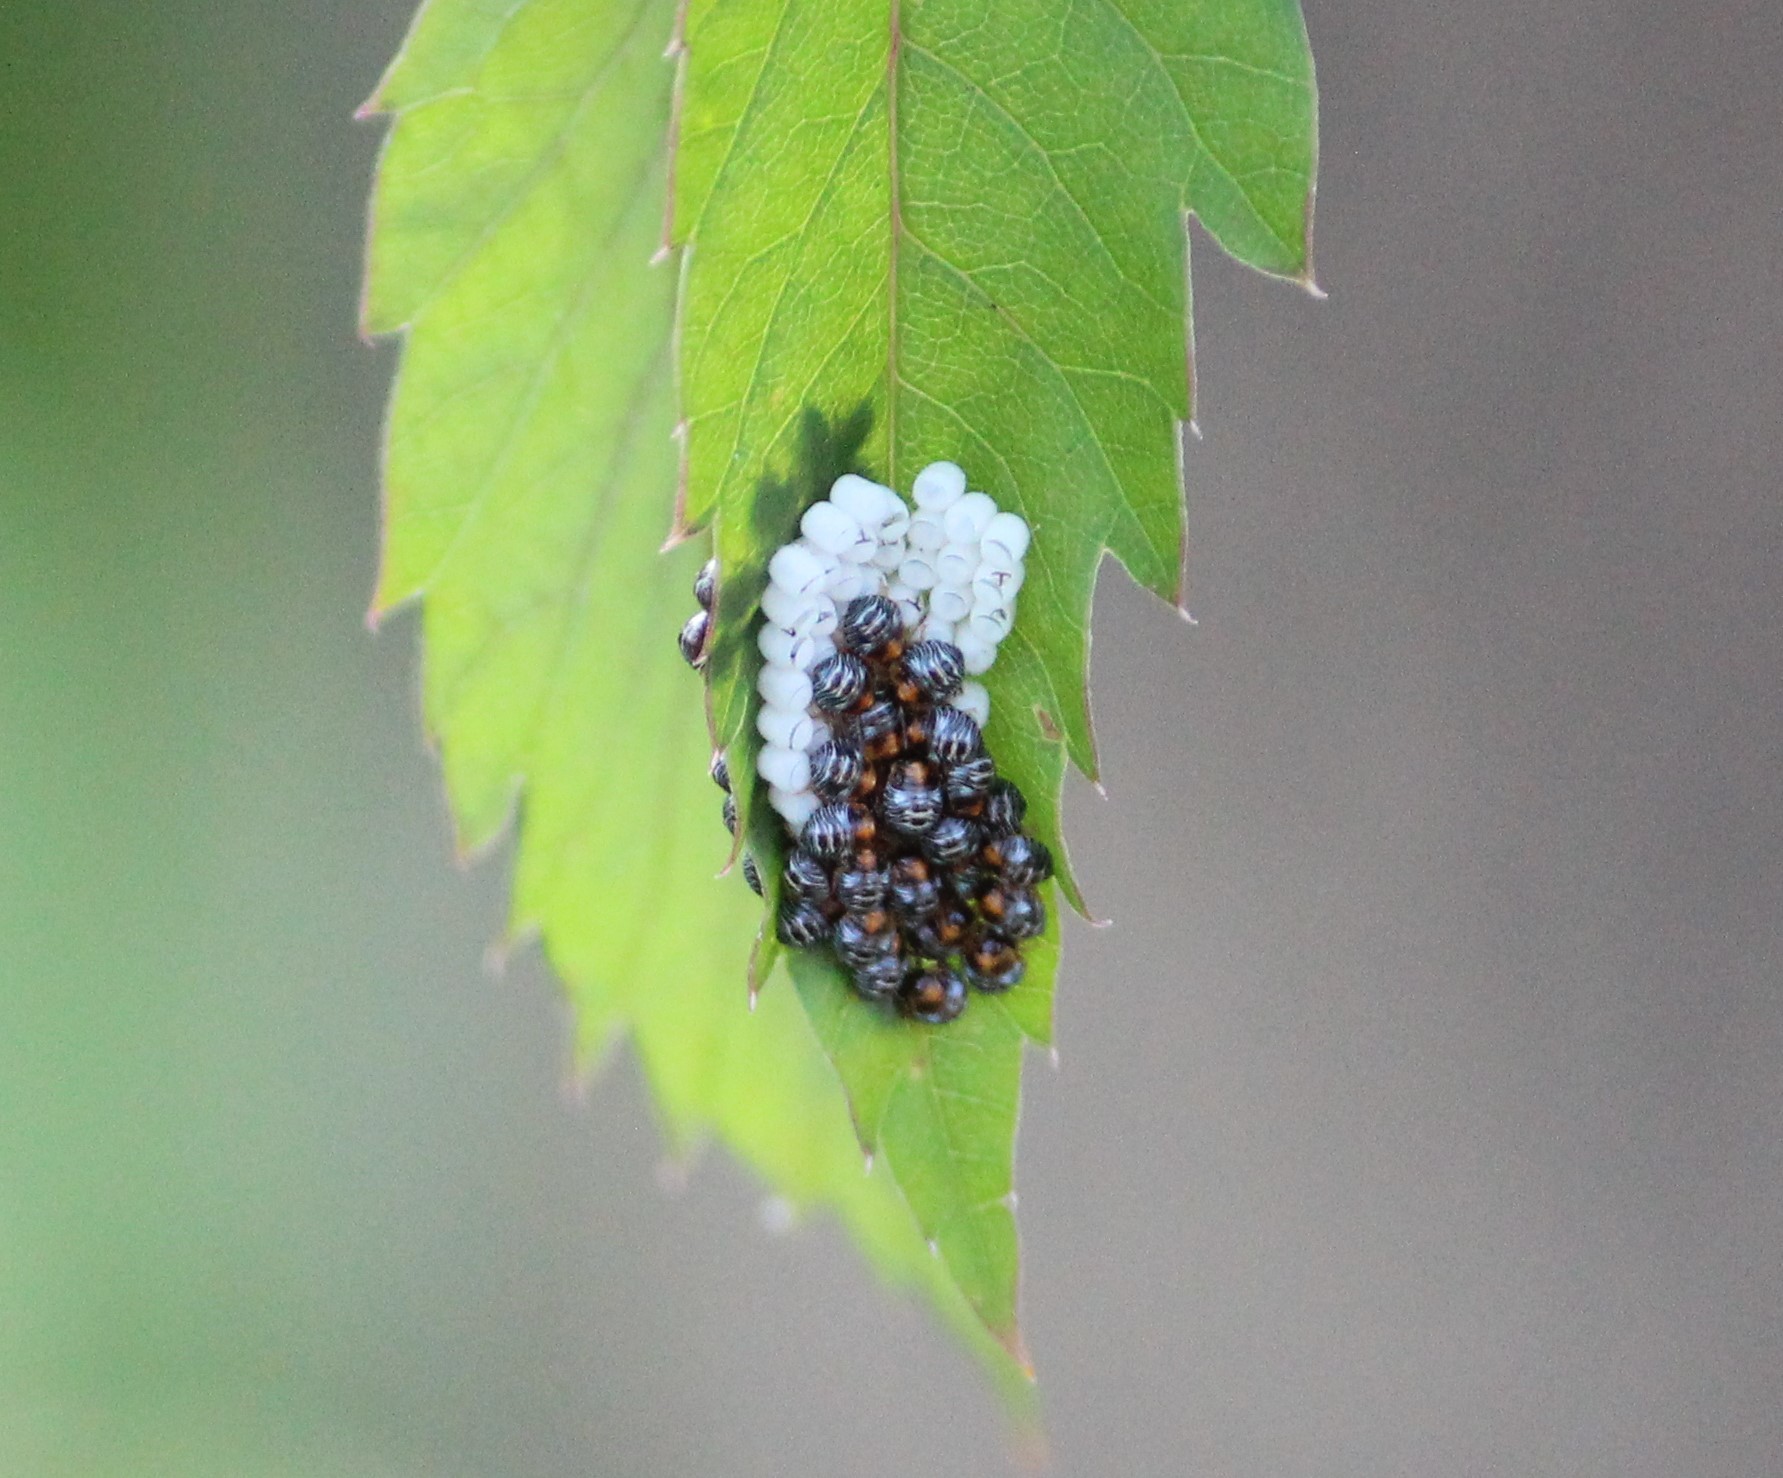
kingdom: Animalia
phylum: Arthropoda
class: Insecta
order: Hemiptera
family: Pentatomidae
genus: Chinavia
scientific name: Chinavia hilaris
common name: Green stink bug
